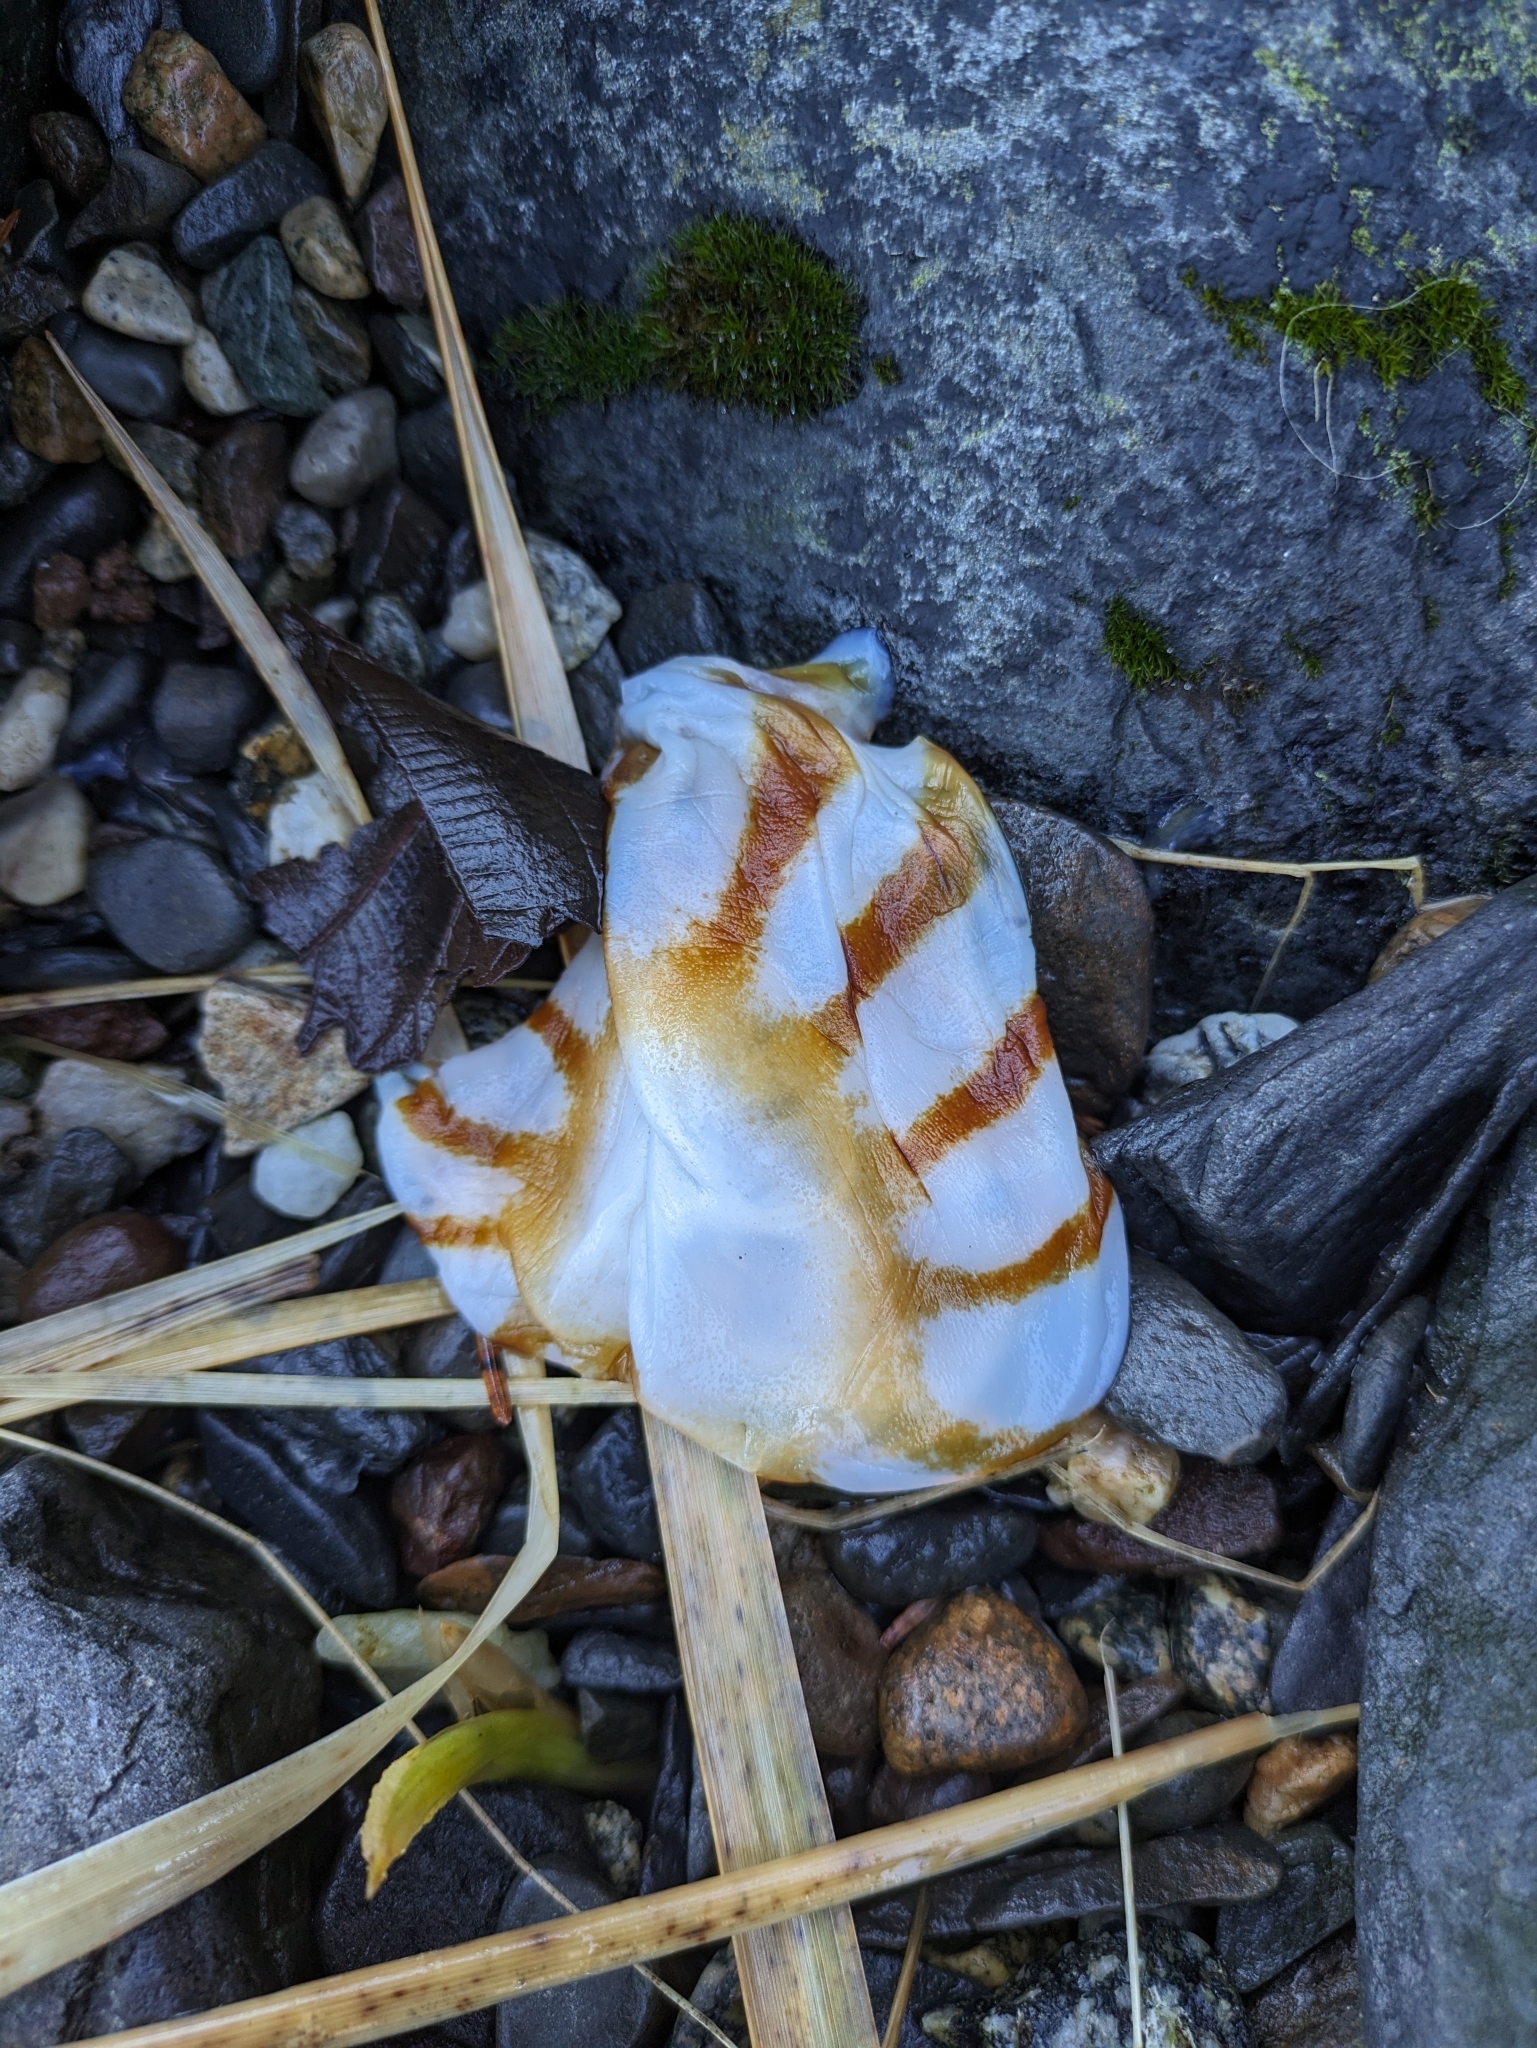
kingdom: Animalia
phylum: Cnidaria
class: Scyphozoa
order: Semaeostomeae
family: Pelagiidae
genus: Chrysaora
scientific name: Chrysaora melanaster
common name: Northern sea nettle
